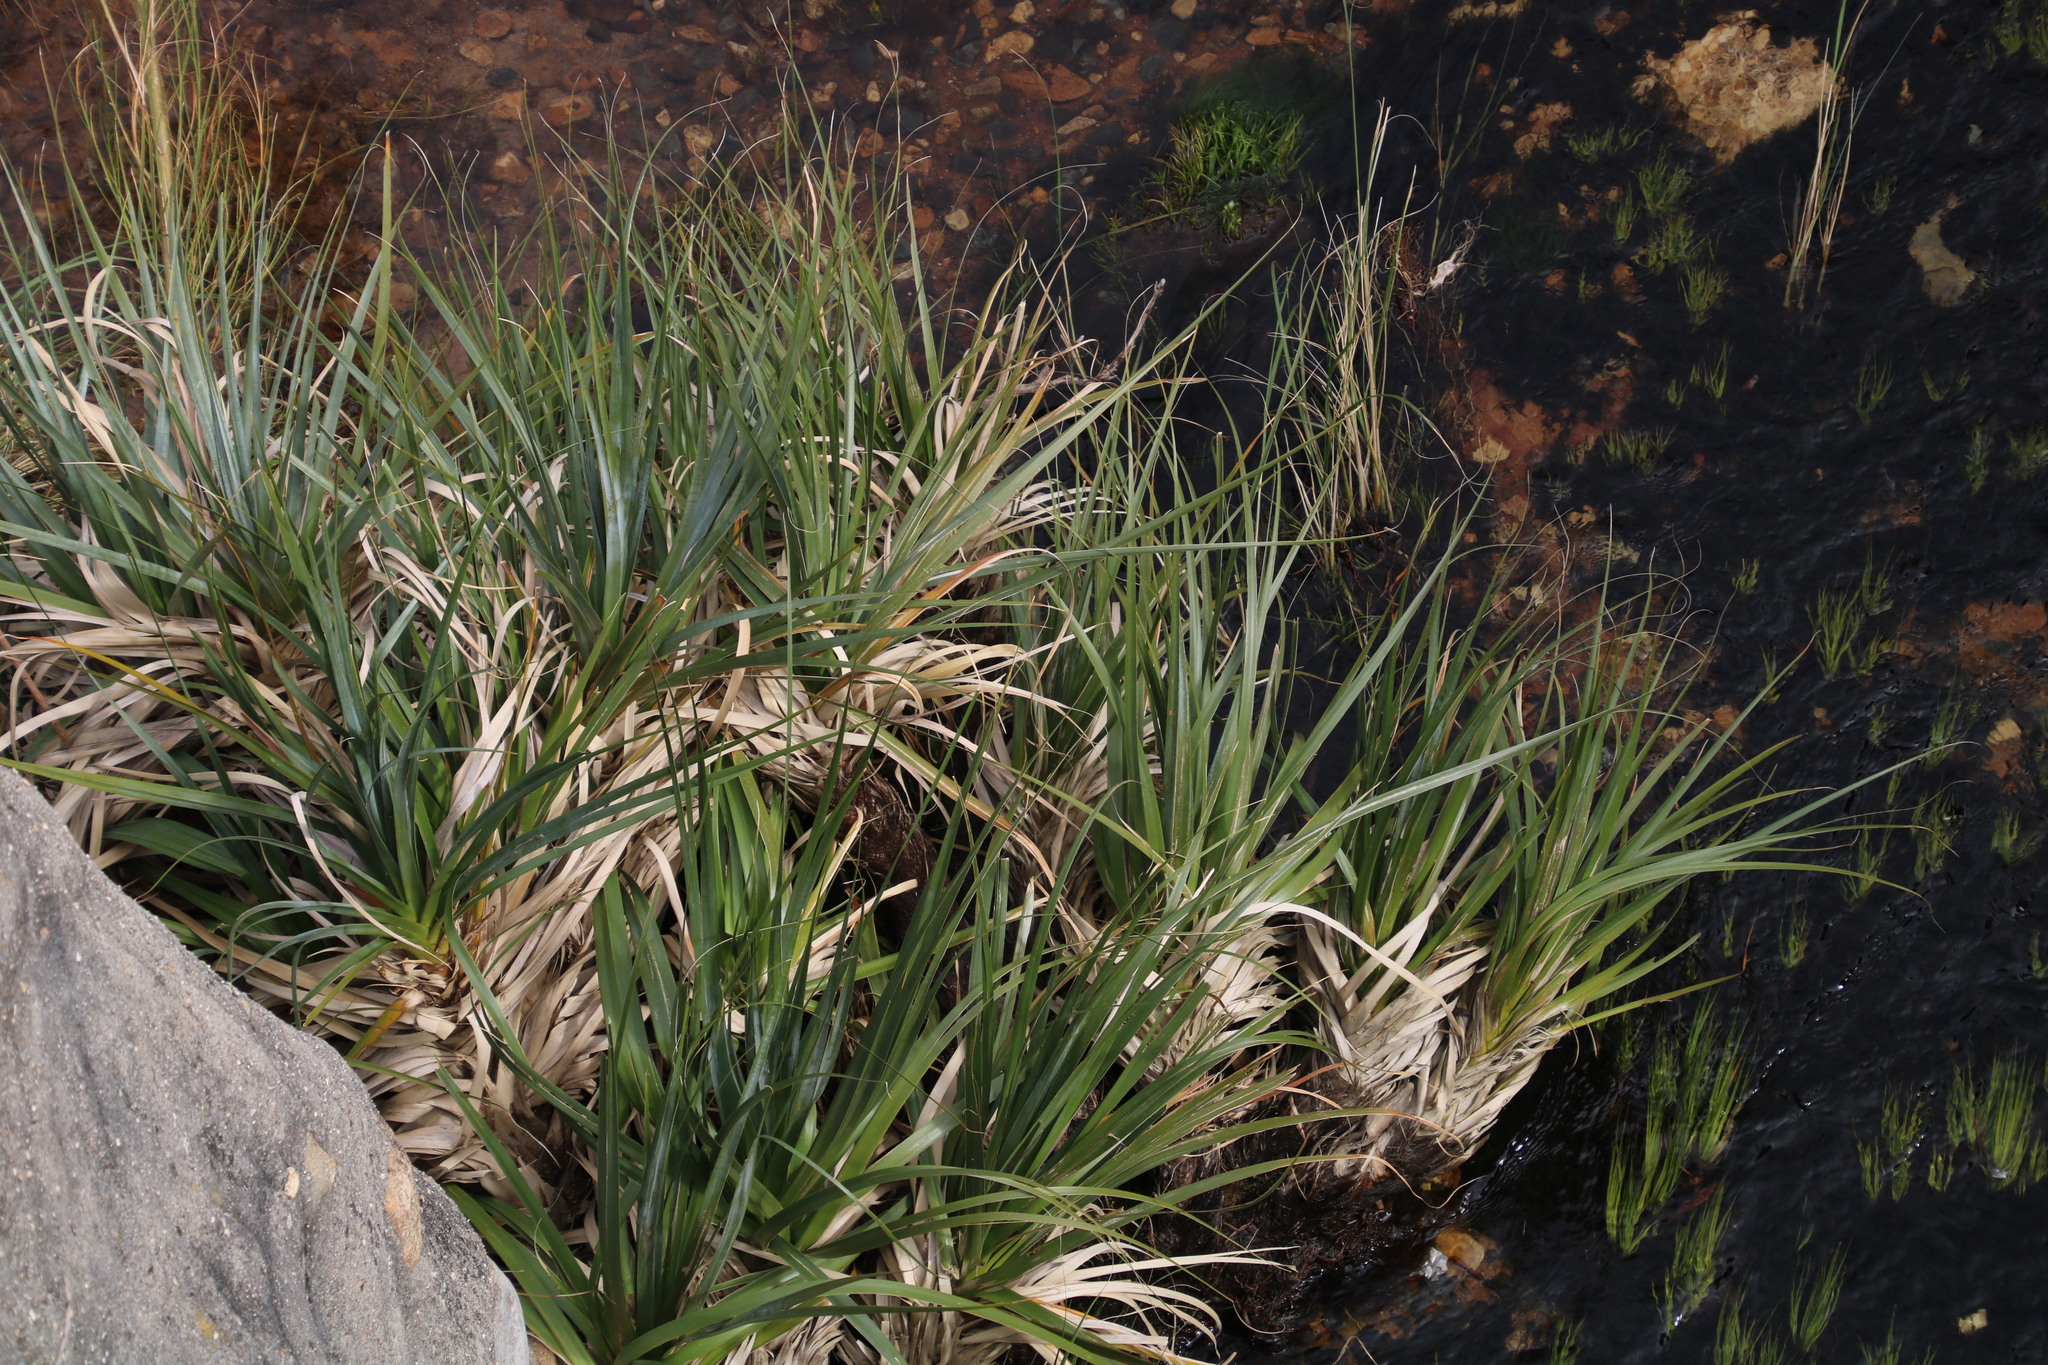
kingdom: Plantae
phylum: Tracheophyta
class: Liliopsida
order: Poales
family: Thurniaceae
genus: Prionium
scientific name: Prionium serratum
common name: Palmiet
